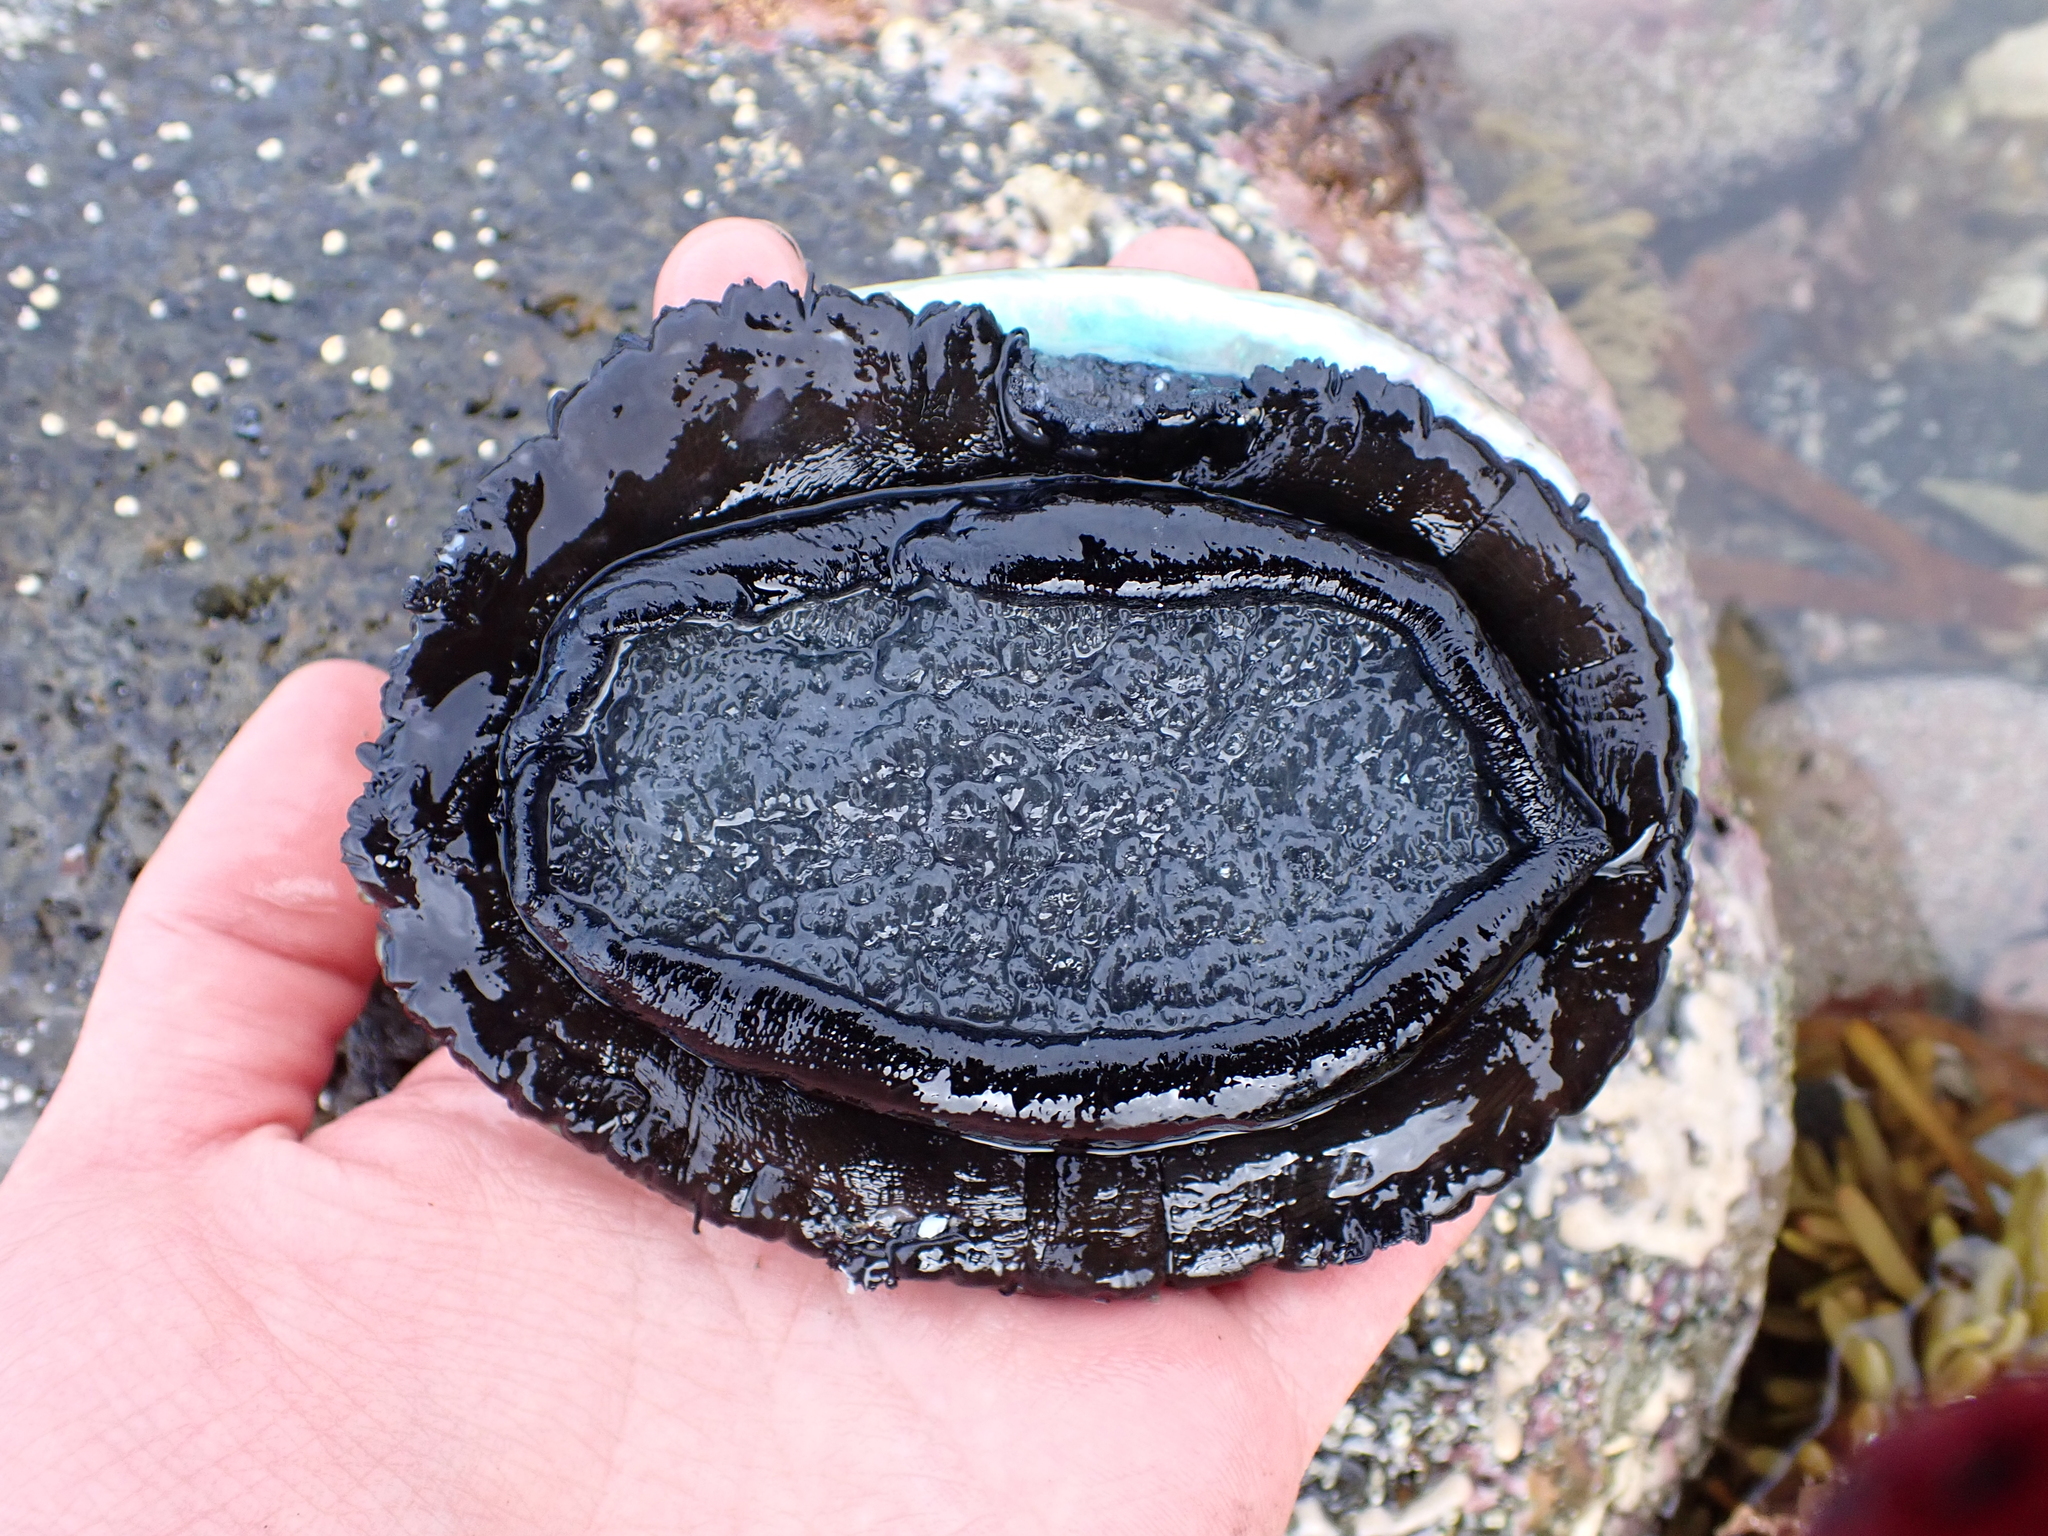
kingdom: Animalia
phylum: Mollusca
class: Gastropoda
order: Lepetellida
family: Haliotidae
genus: Haliotis
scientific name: Haliotis iris
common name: Abalone
